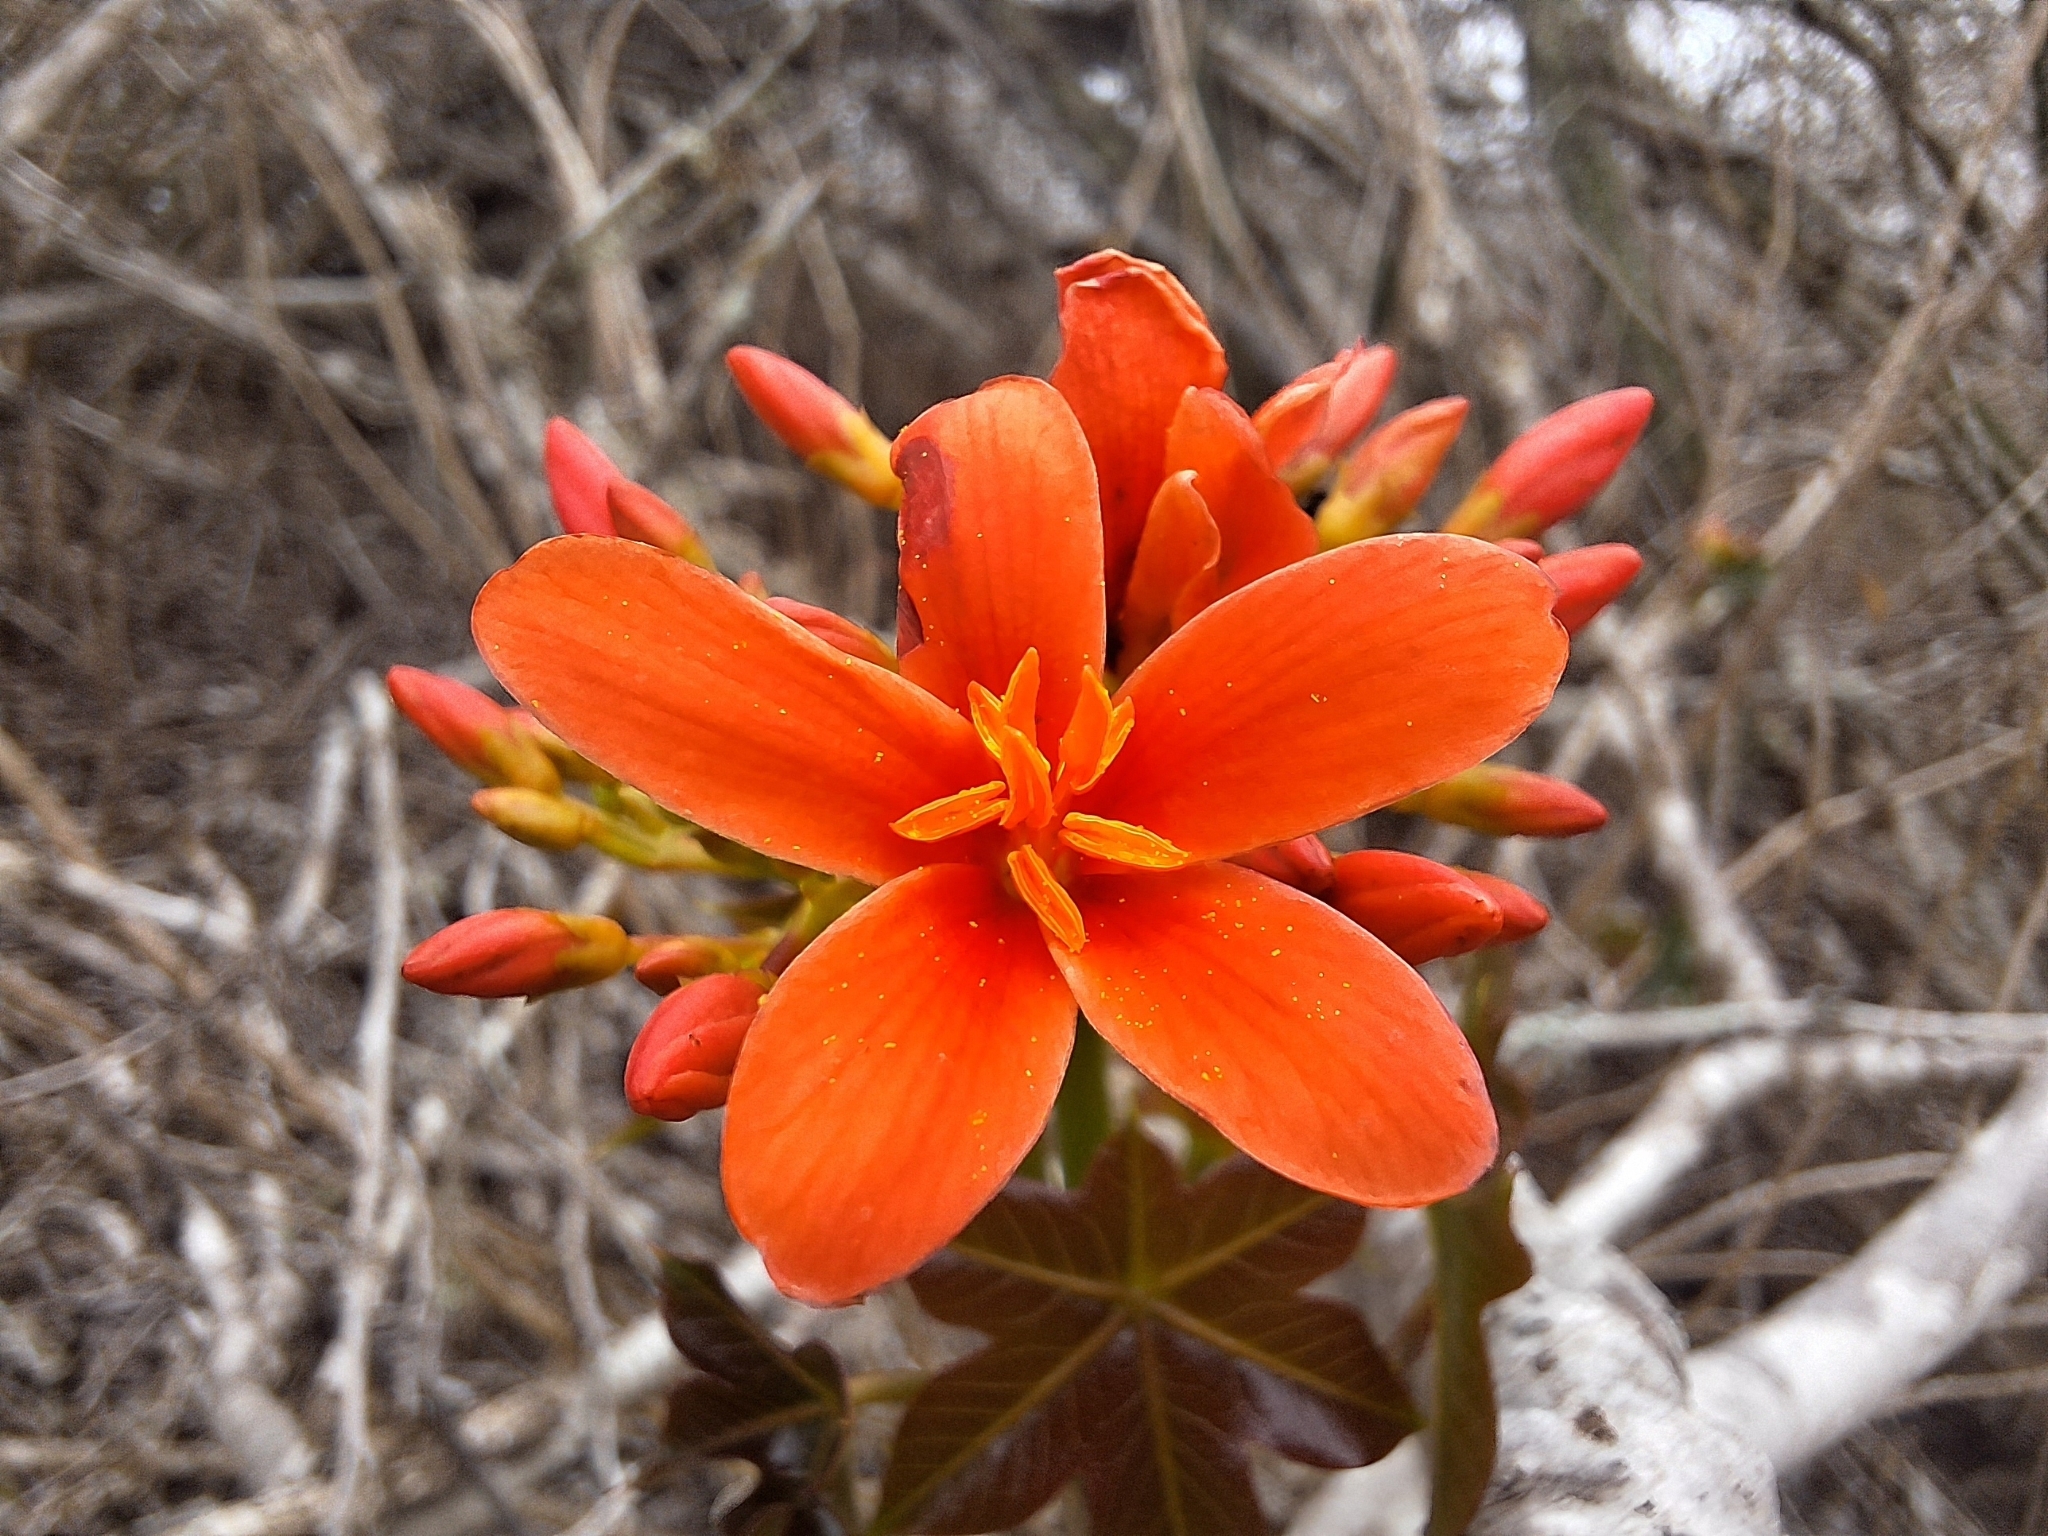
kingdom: Plantae
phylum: Tracheophyta
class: Magnoliopsida
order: Malpighiales
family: Euphorbiaceae
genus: Jatropha
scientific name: Jatropha nudicaulis
